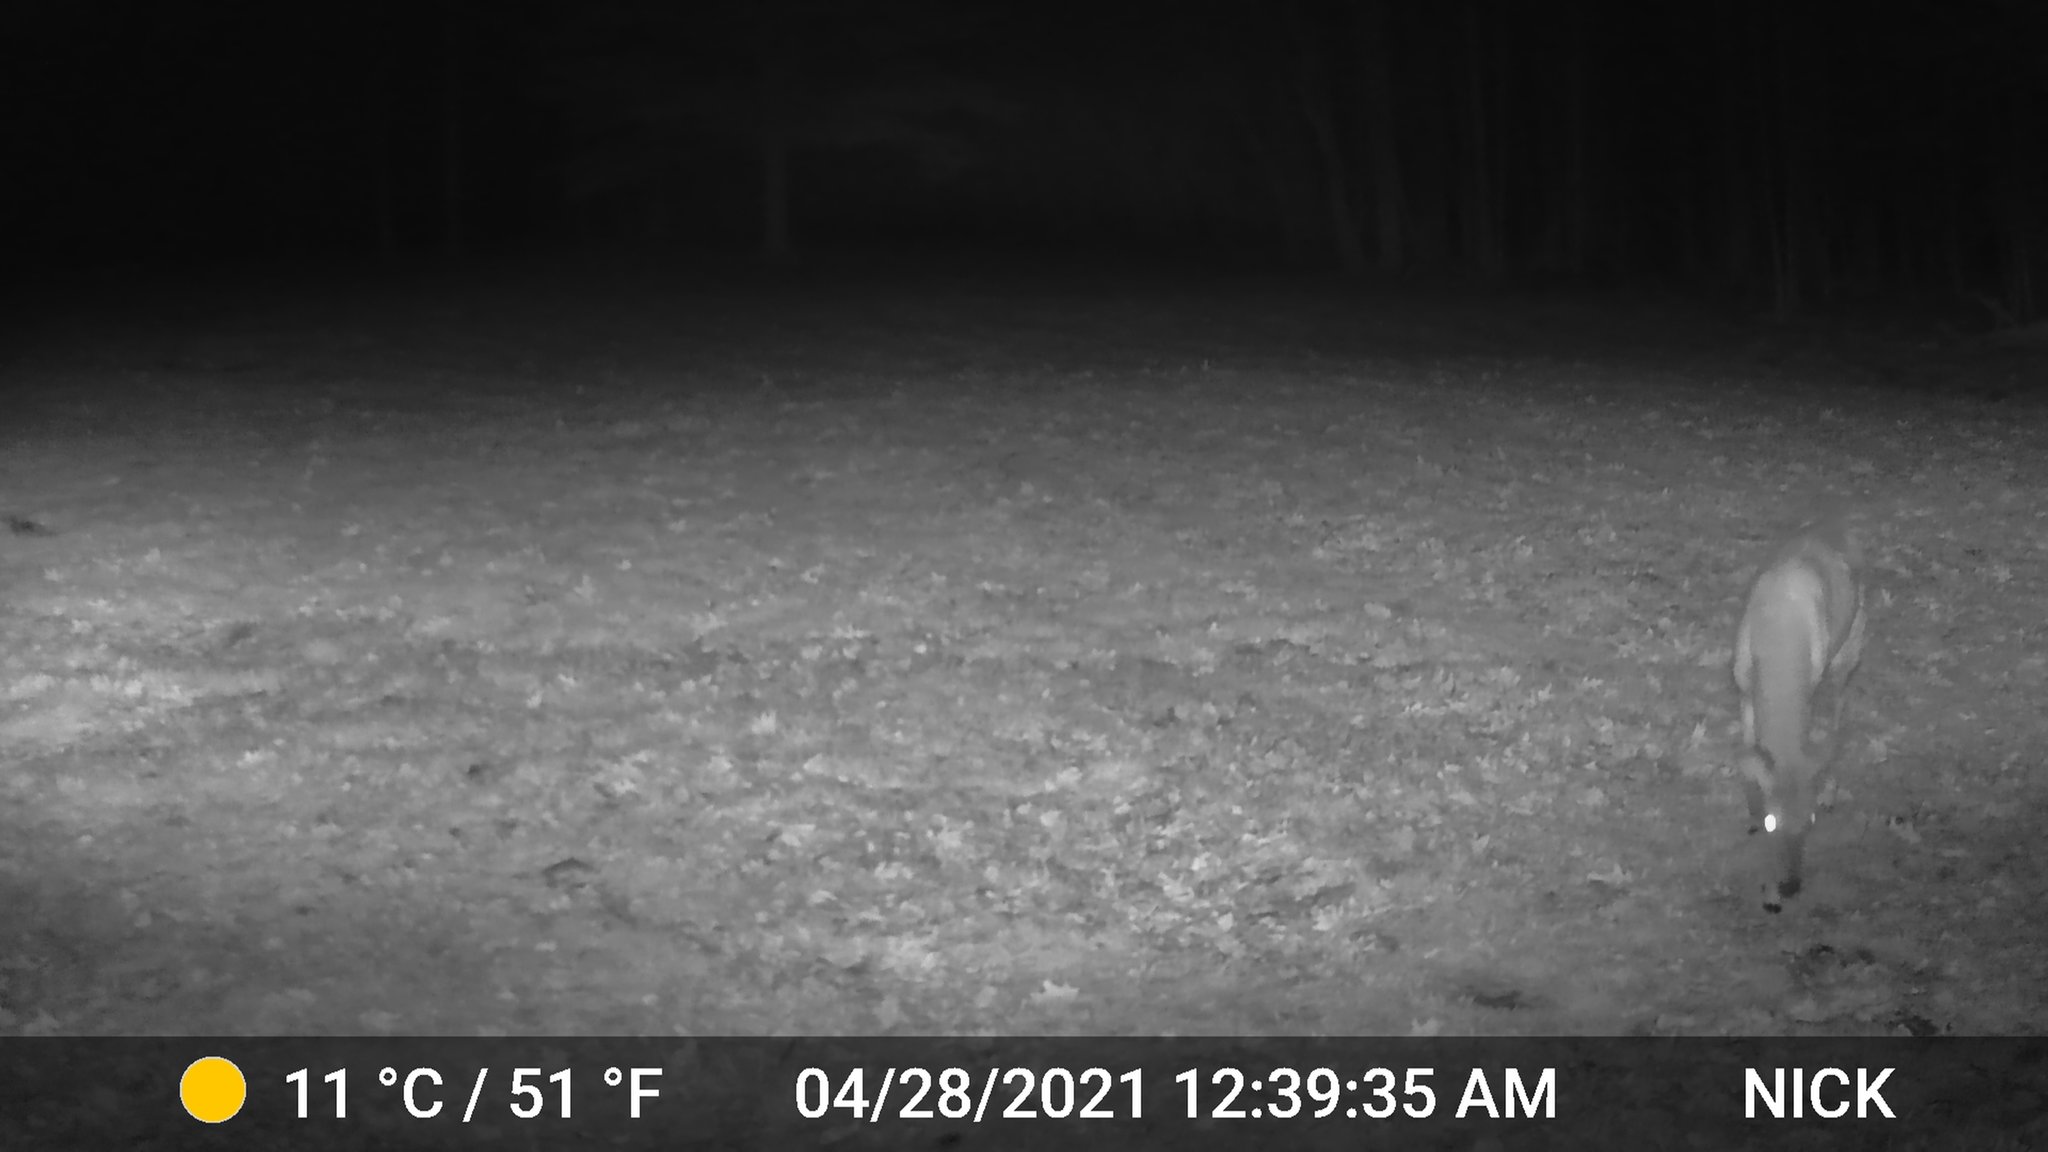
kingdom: Animalia
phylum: Chordata
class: Mammalia
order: Artiodactyla
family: Cervidae
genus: Odocoileus
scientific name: Odocoileus virginianus
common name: White-tailed deer
